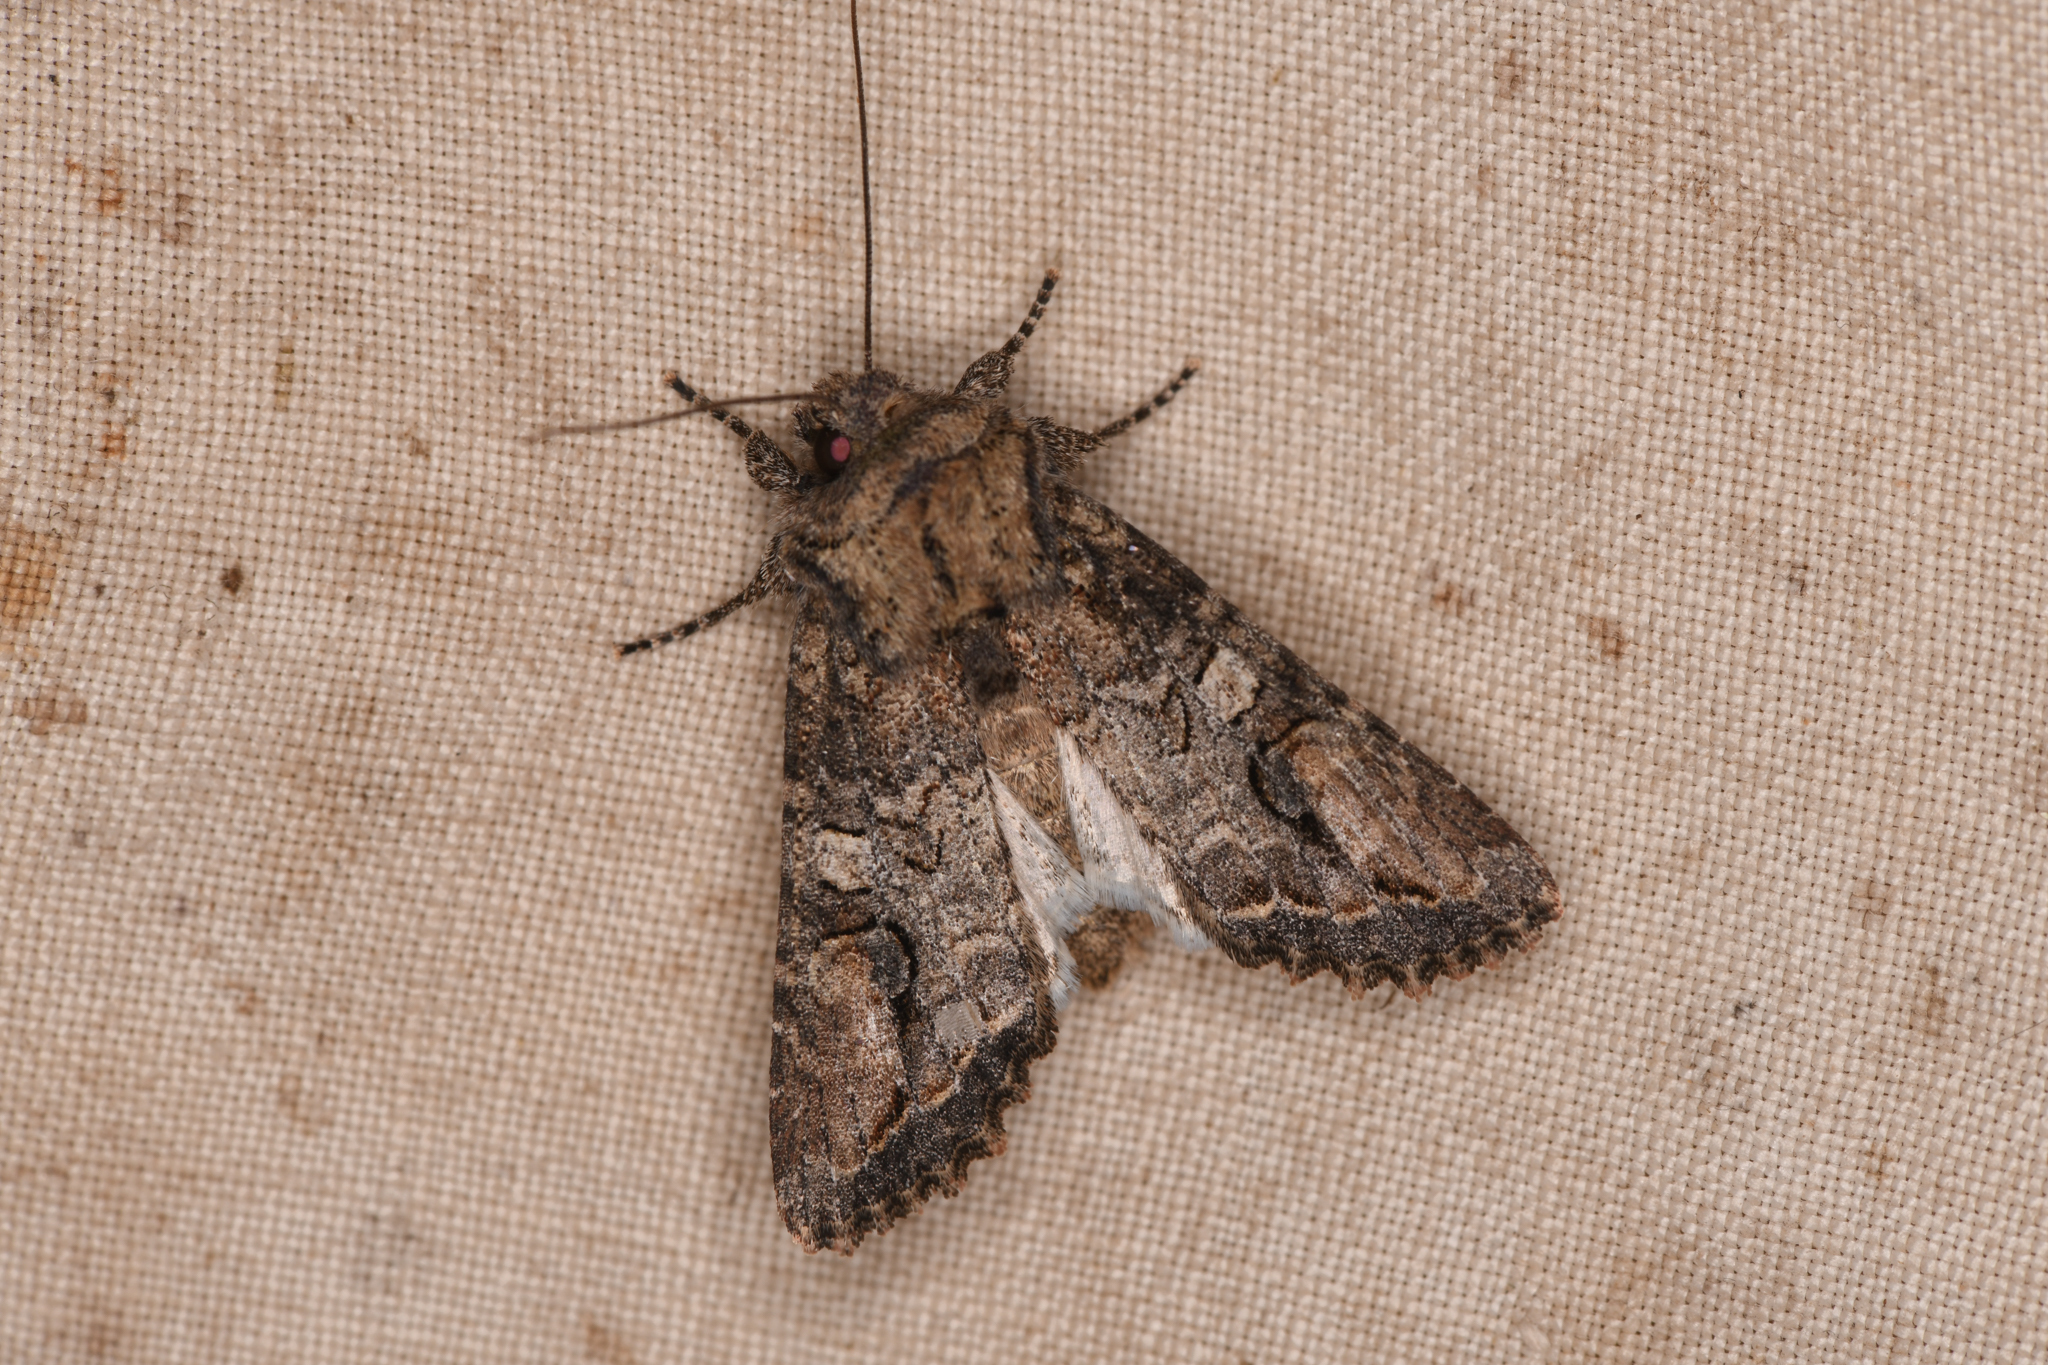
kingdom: Animalia
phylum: Arthropoda
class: Insecta
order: Lepidoptera
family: Noctuidae
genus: Egira
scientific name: Egira perlubens
